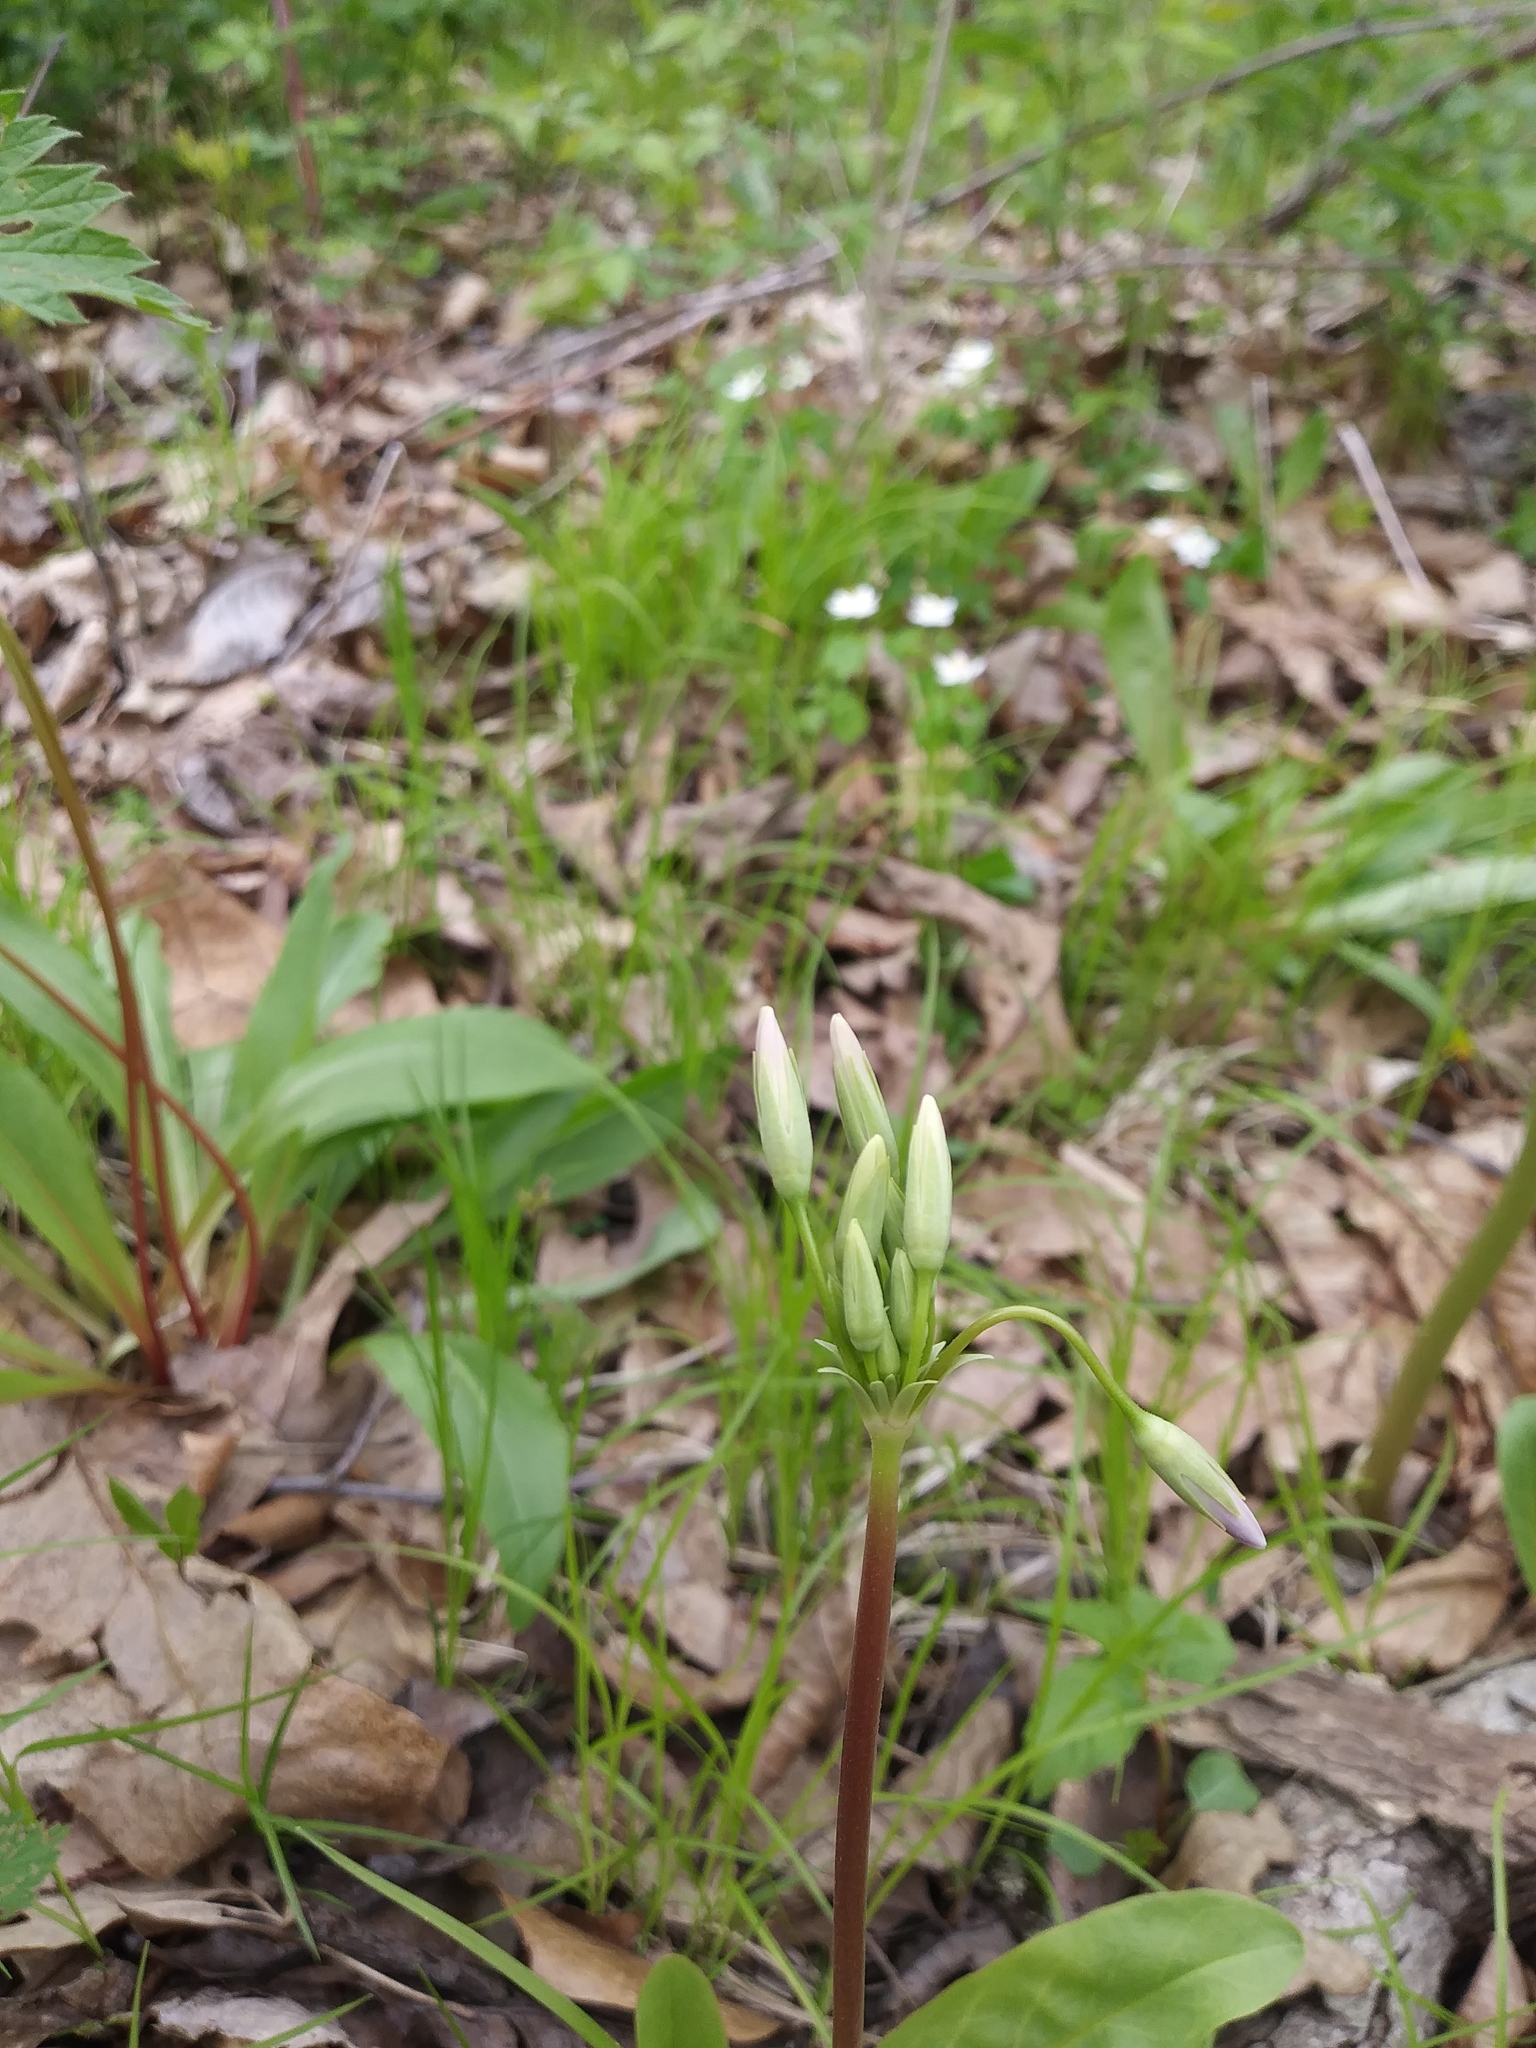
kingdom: Plantae
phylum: Tracheophyta
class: Magnoliopsida
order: Ericales
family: Primulaceae
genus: Dodecatheon
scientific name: Dodecatheon meadia
